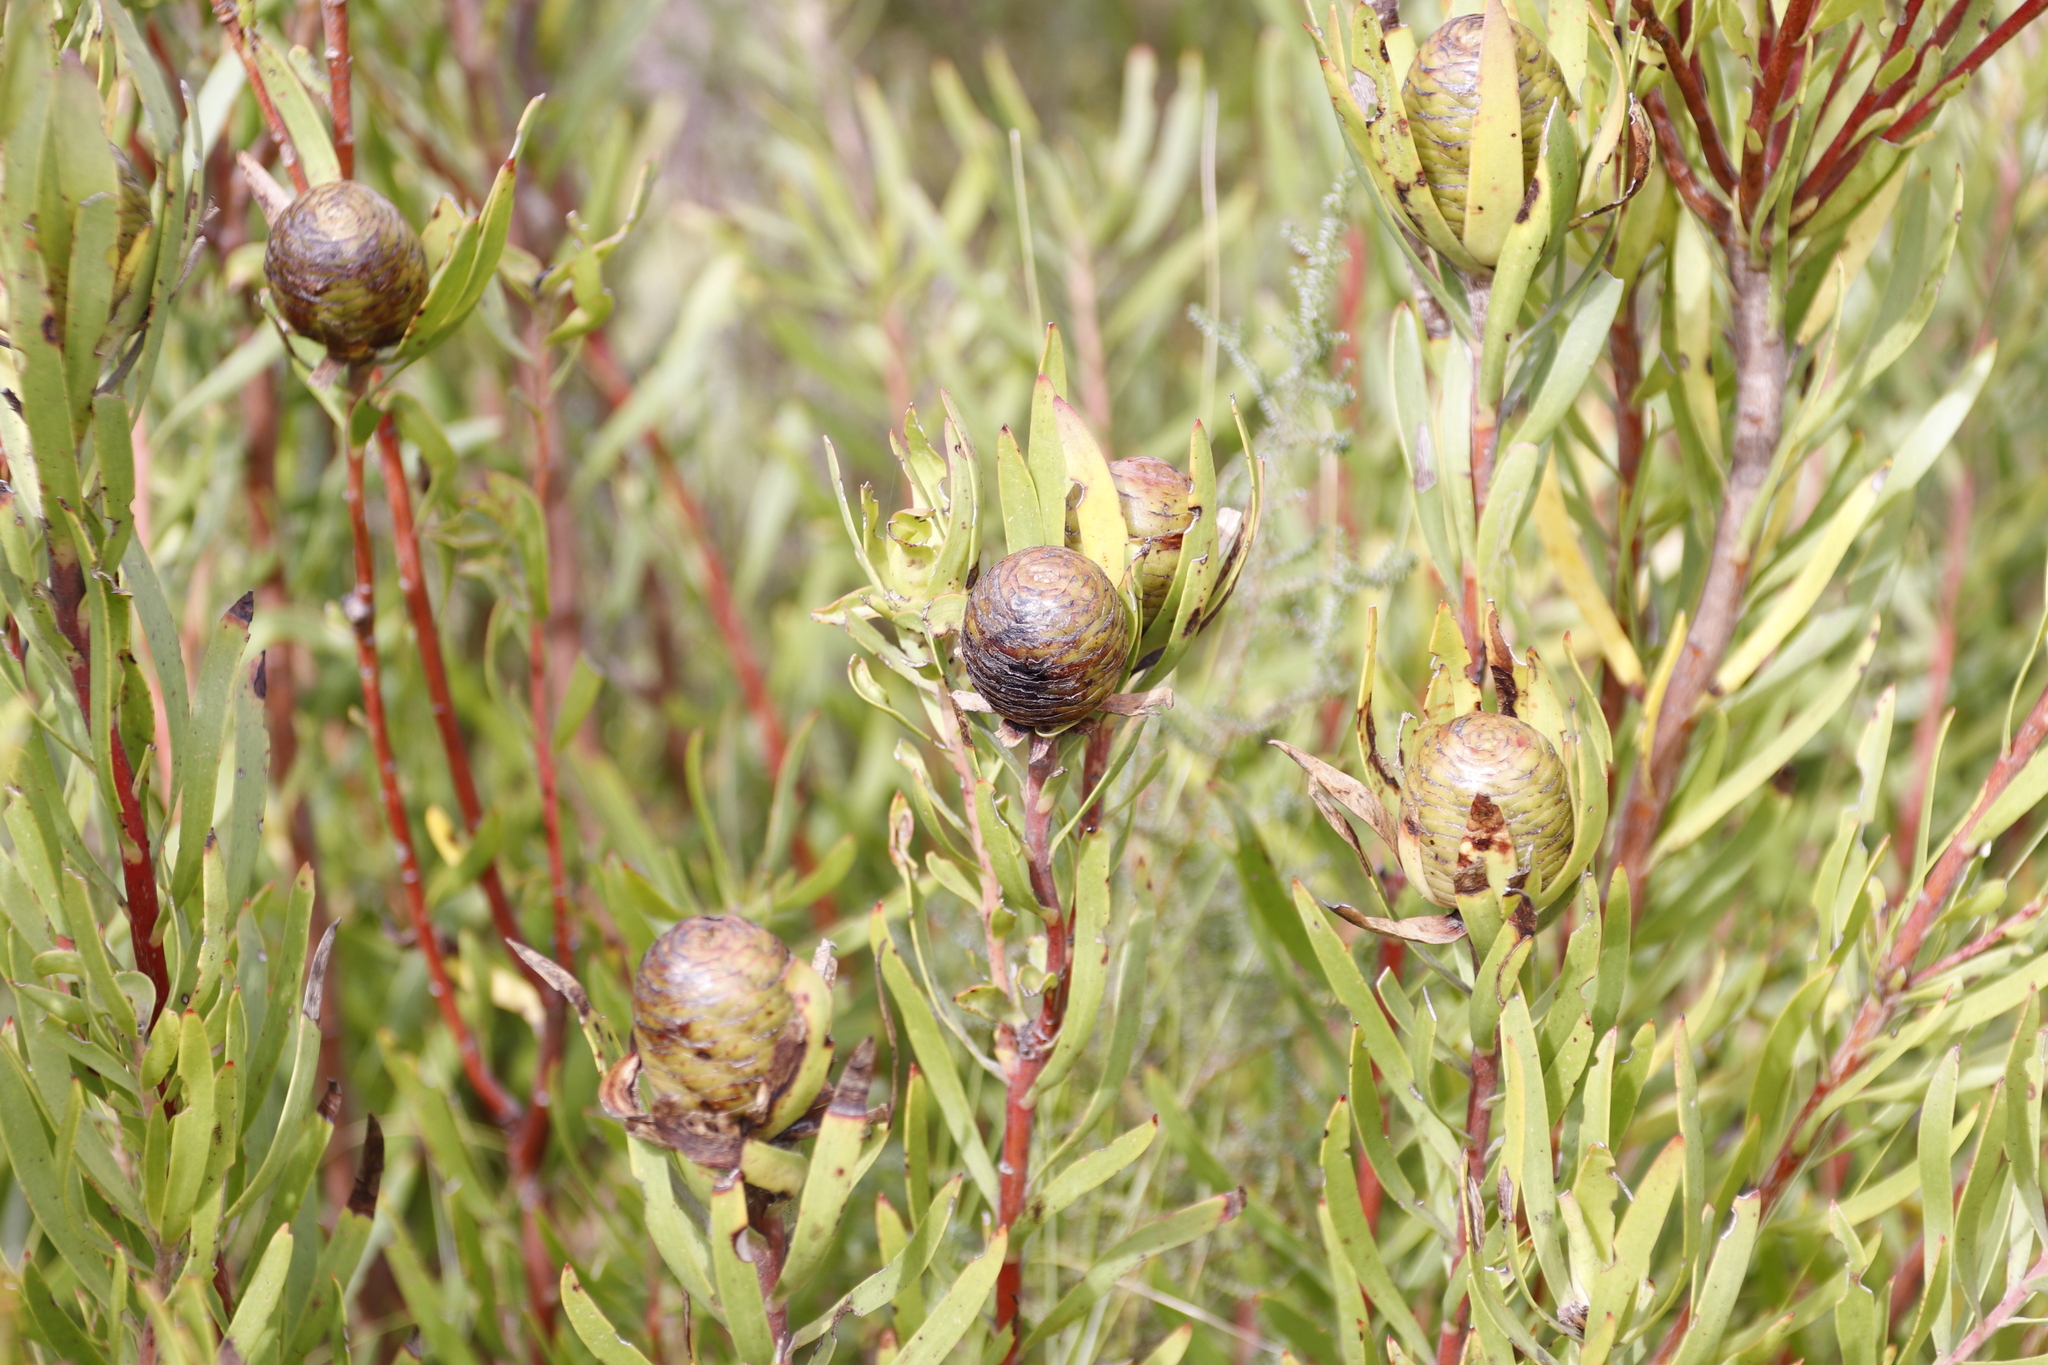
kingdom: Plantae
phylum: Tracheophyta
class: Magnoliopsida
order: Proteales
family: Proteaceae
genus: Leucadendron
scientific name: Leucadendron spissifolium
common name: Spear-leaf conebush
